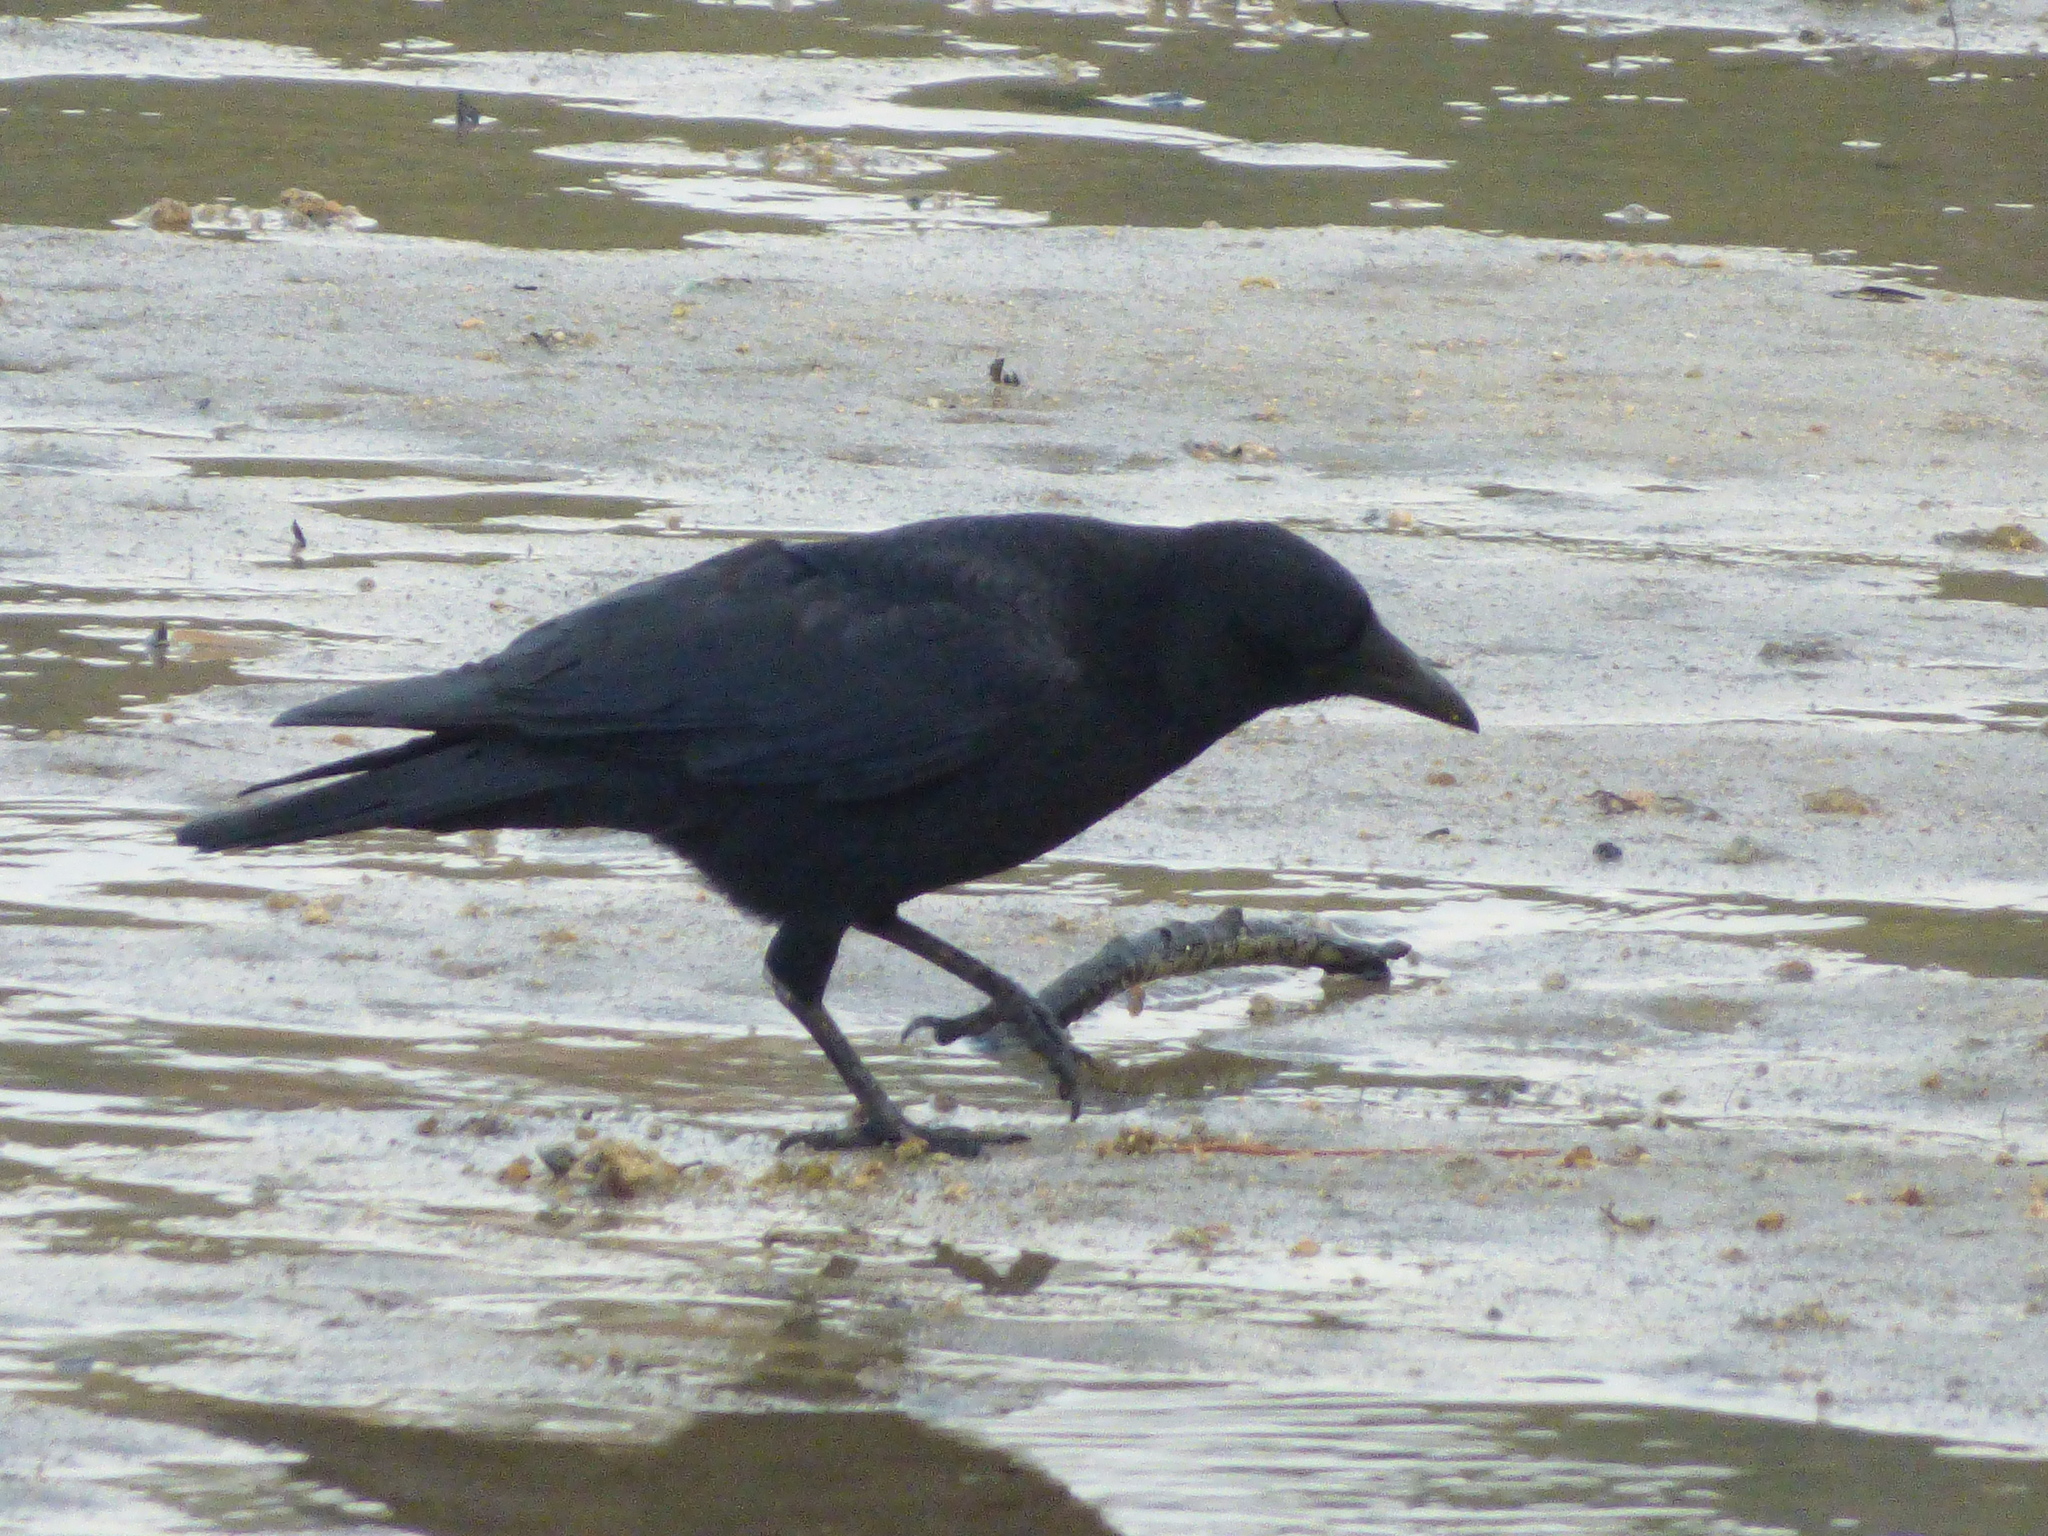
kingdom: Animalia
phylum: Chordata
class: Aves
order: Passeriformes
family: Corvidae
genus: Corvus
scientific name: Corvus corone
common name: Carrion crow
